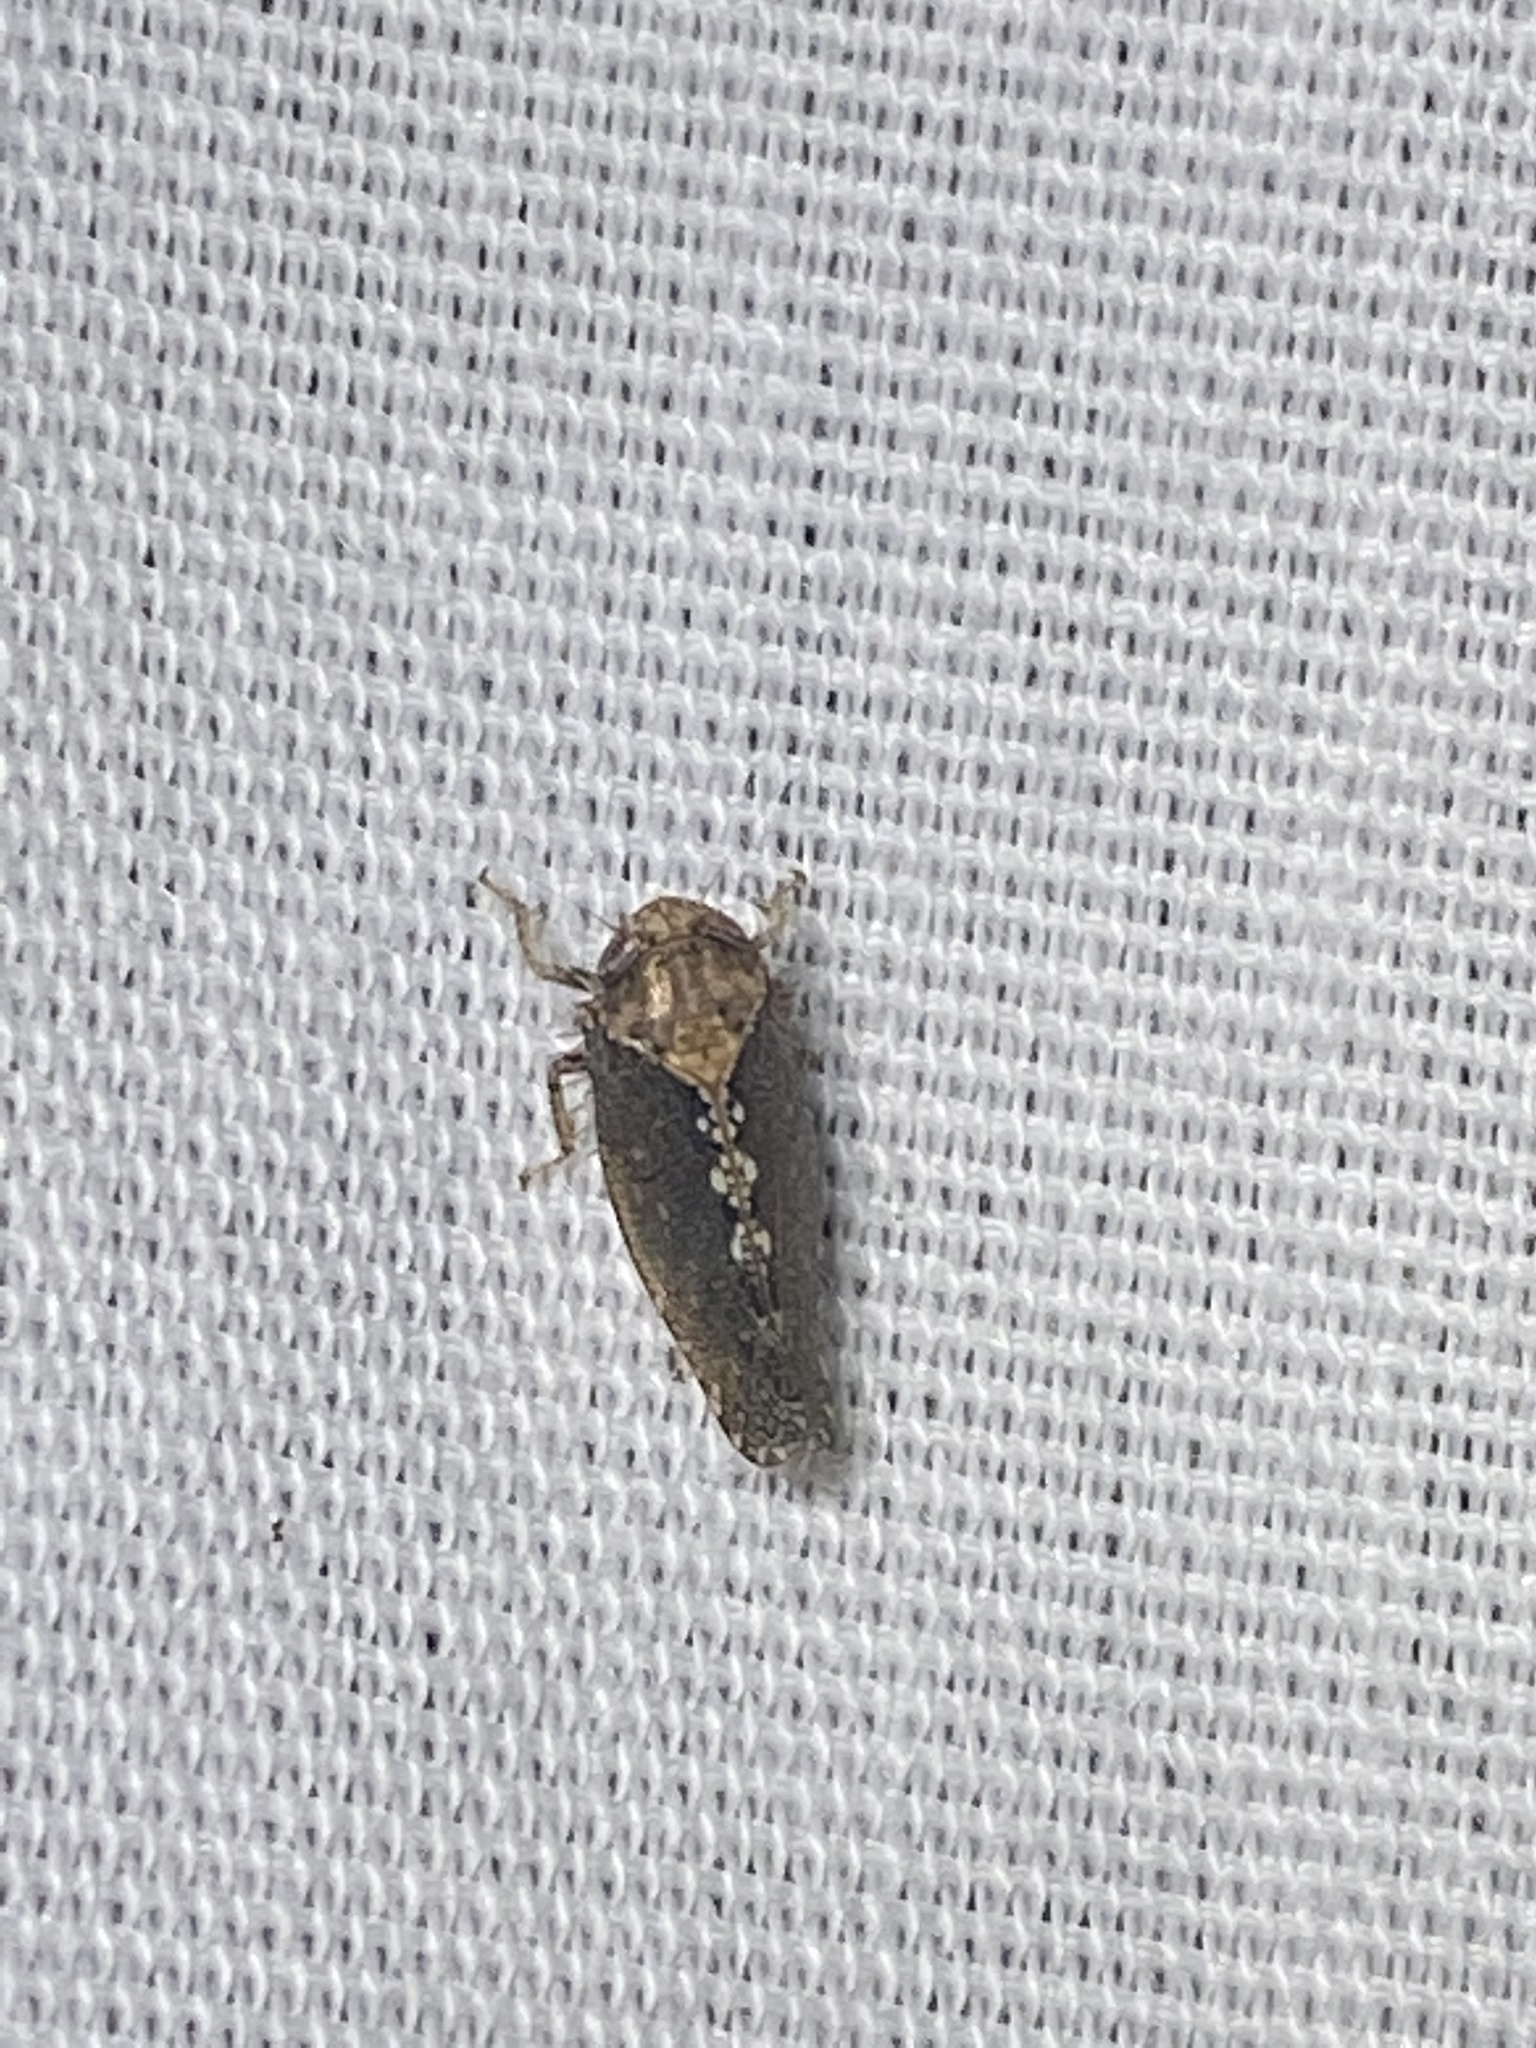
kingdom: Animalia
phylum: Arthropoda
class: Insecta
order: Hemiptera
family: Cicadellidae
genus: Excultanus
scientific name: Excultanus excultus
